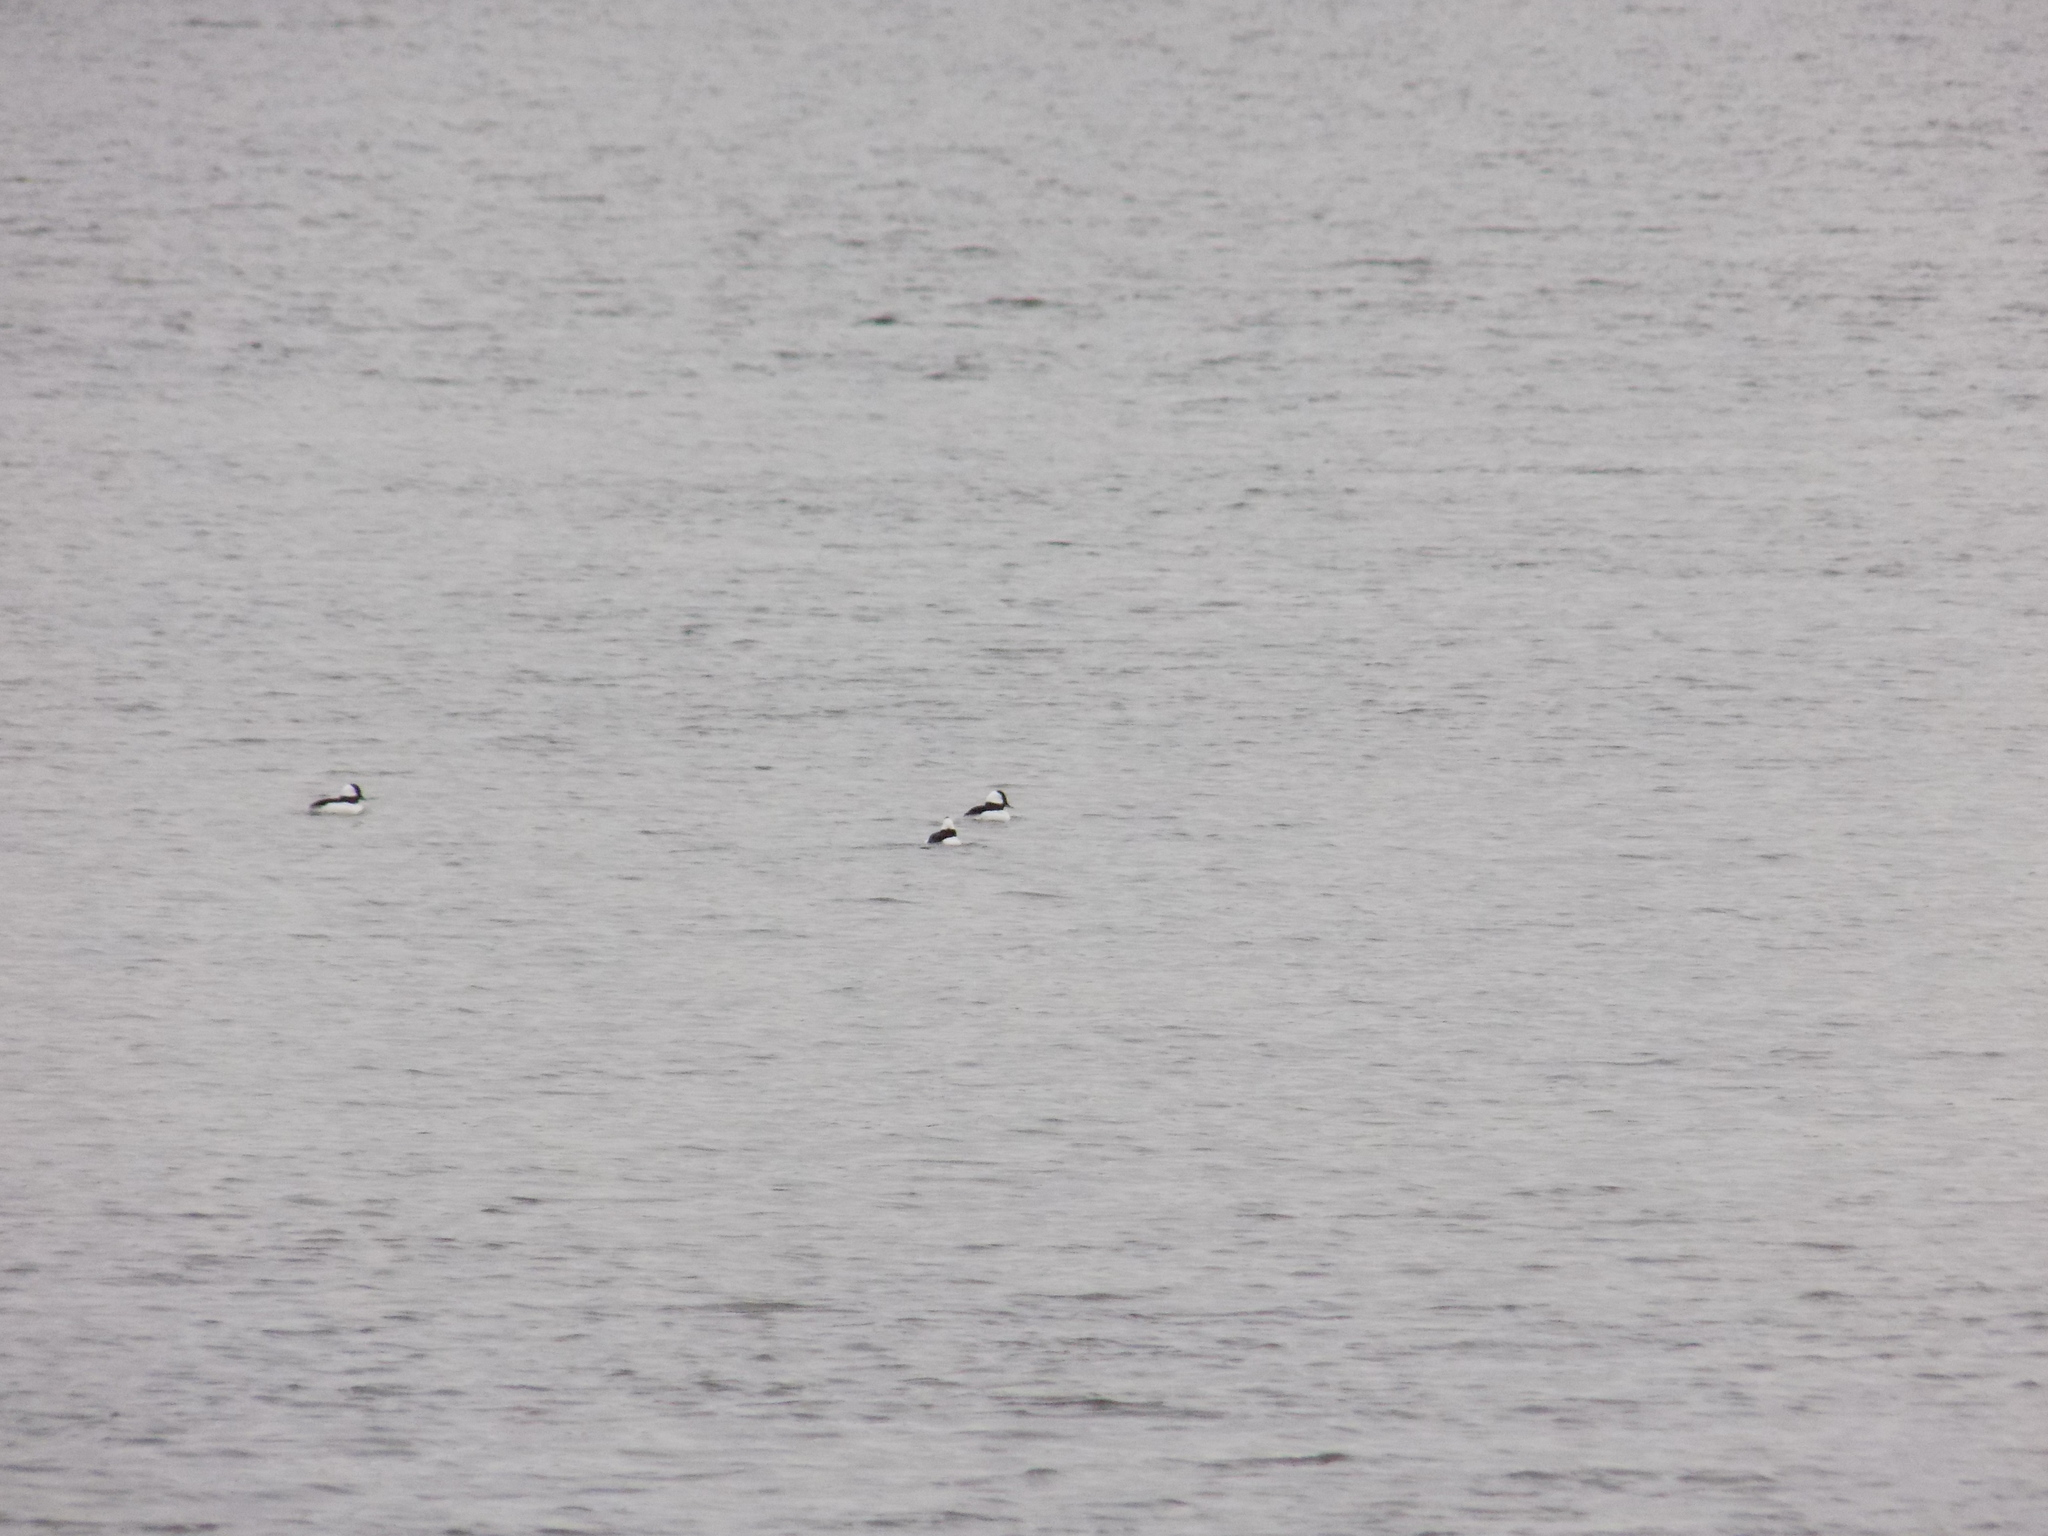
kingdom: Animalia
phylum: Chordata
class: Aves
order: Anseriformes
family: Anatidae
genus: Bucephala
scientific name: Bucephala albeola
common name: Bufflehead
